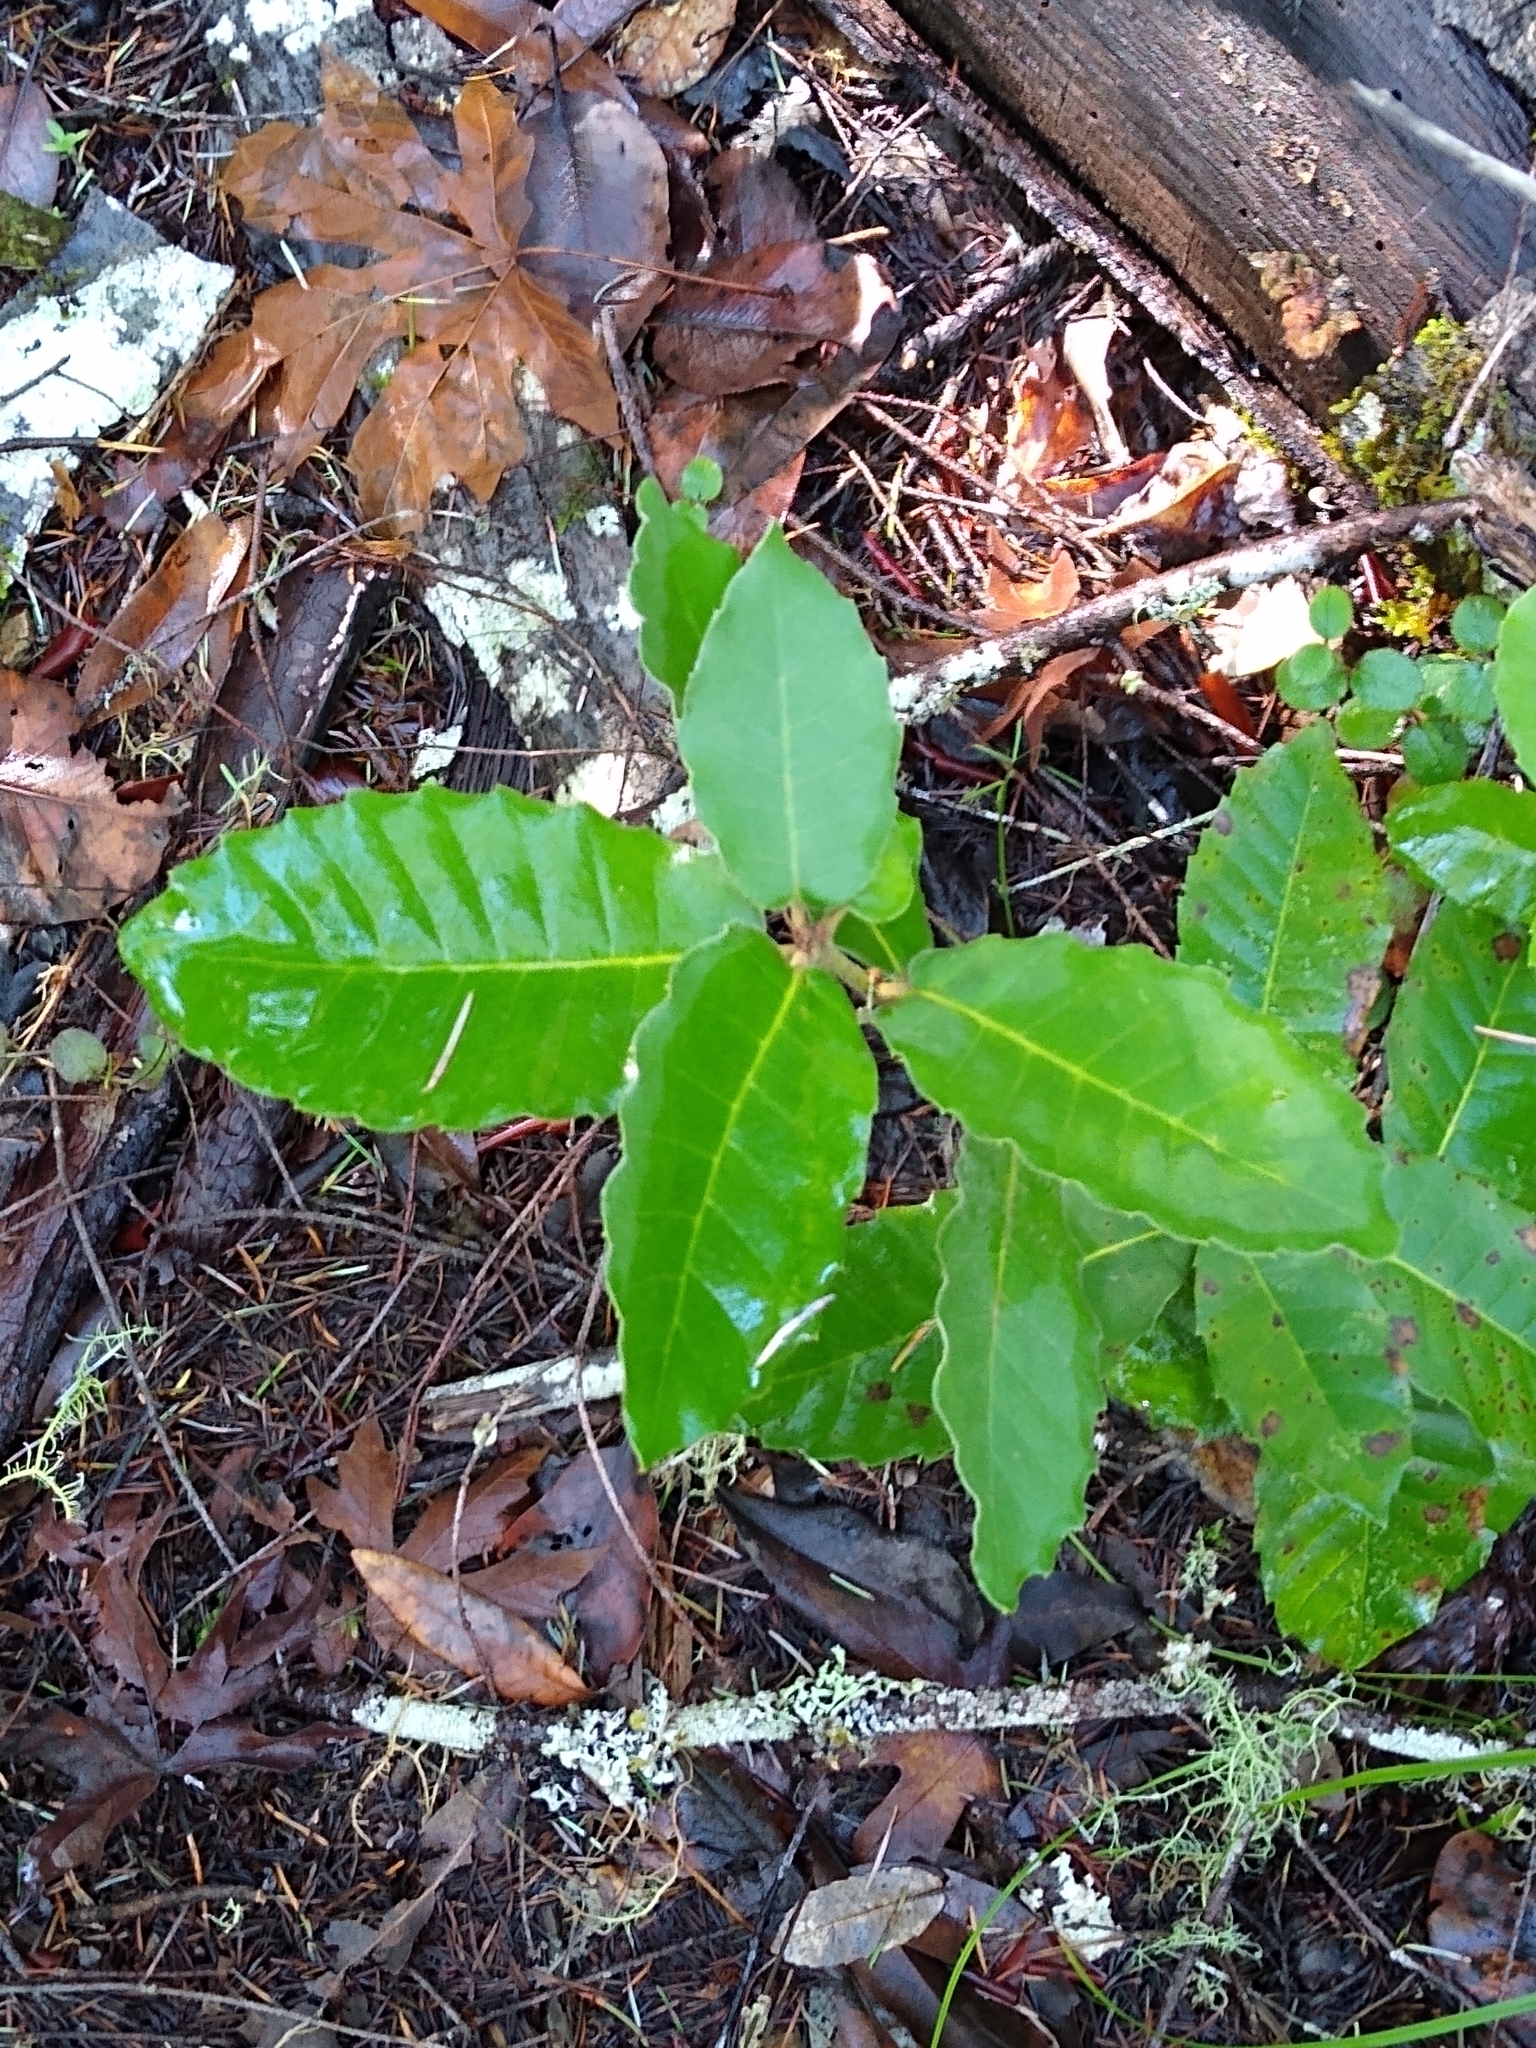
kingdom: Plantae
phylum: Tracheophyta
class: Magnoliopsida
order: Fagales
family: Fagaceae
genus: Notholithocarpus
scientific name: Notholithocarpus densiflorus
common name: Tan bark oak
